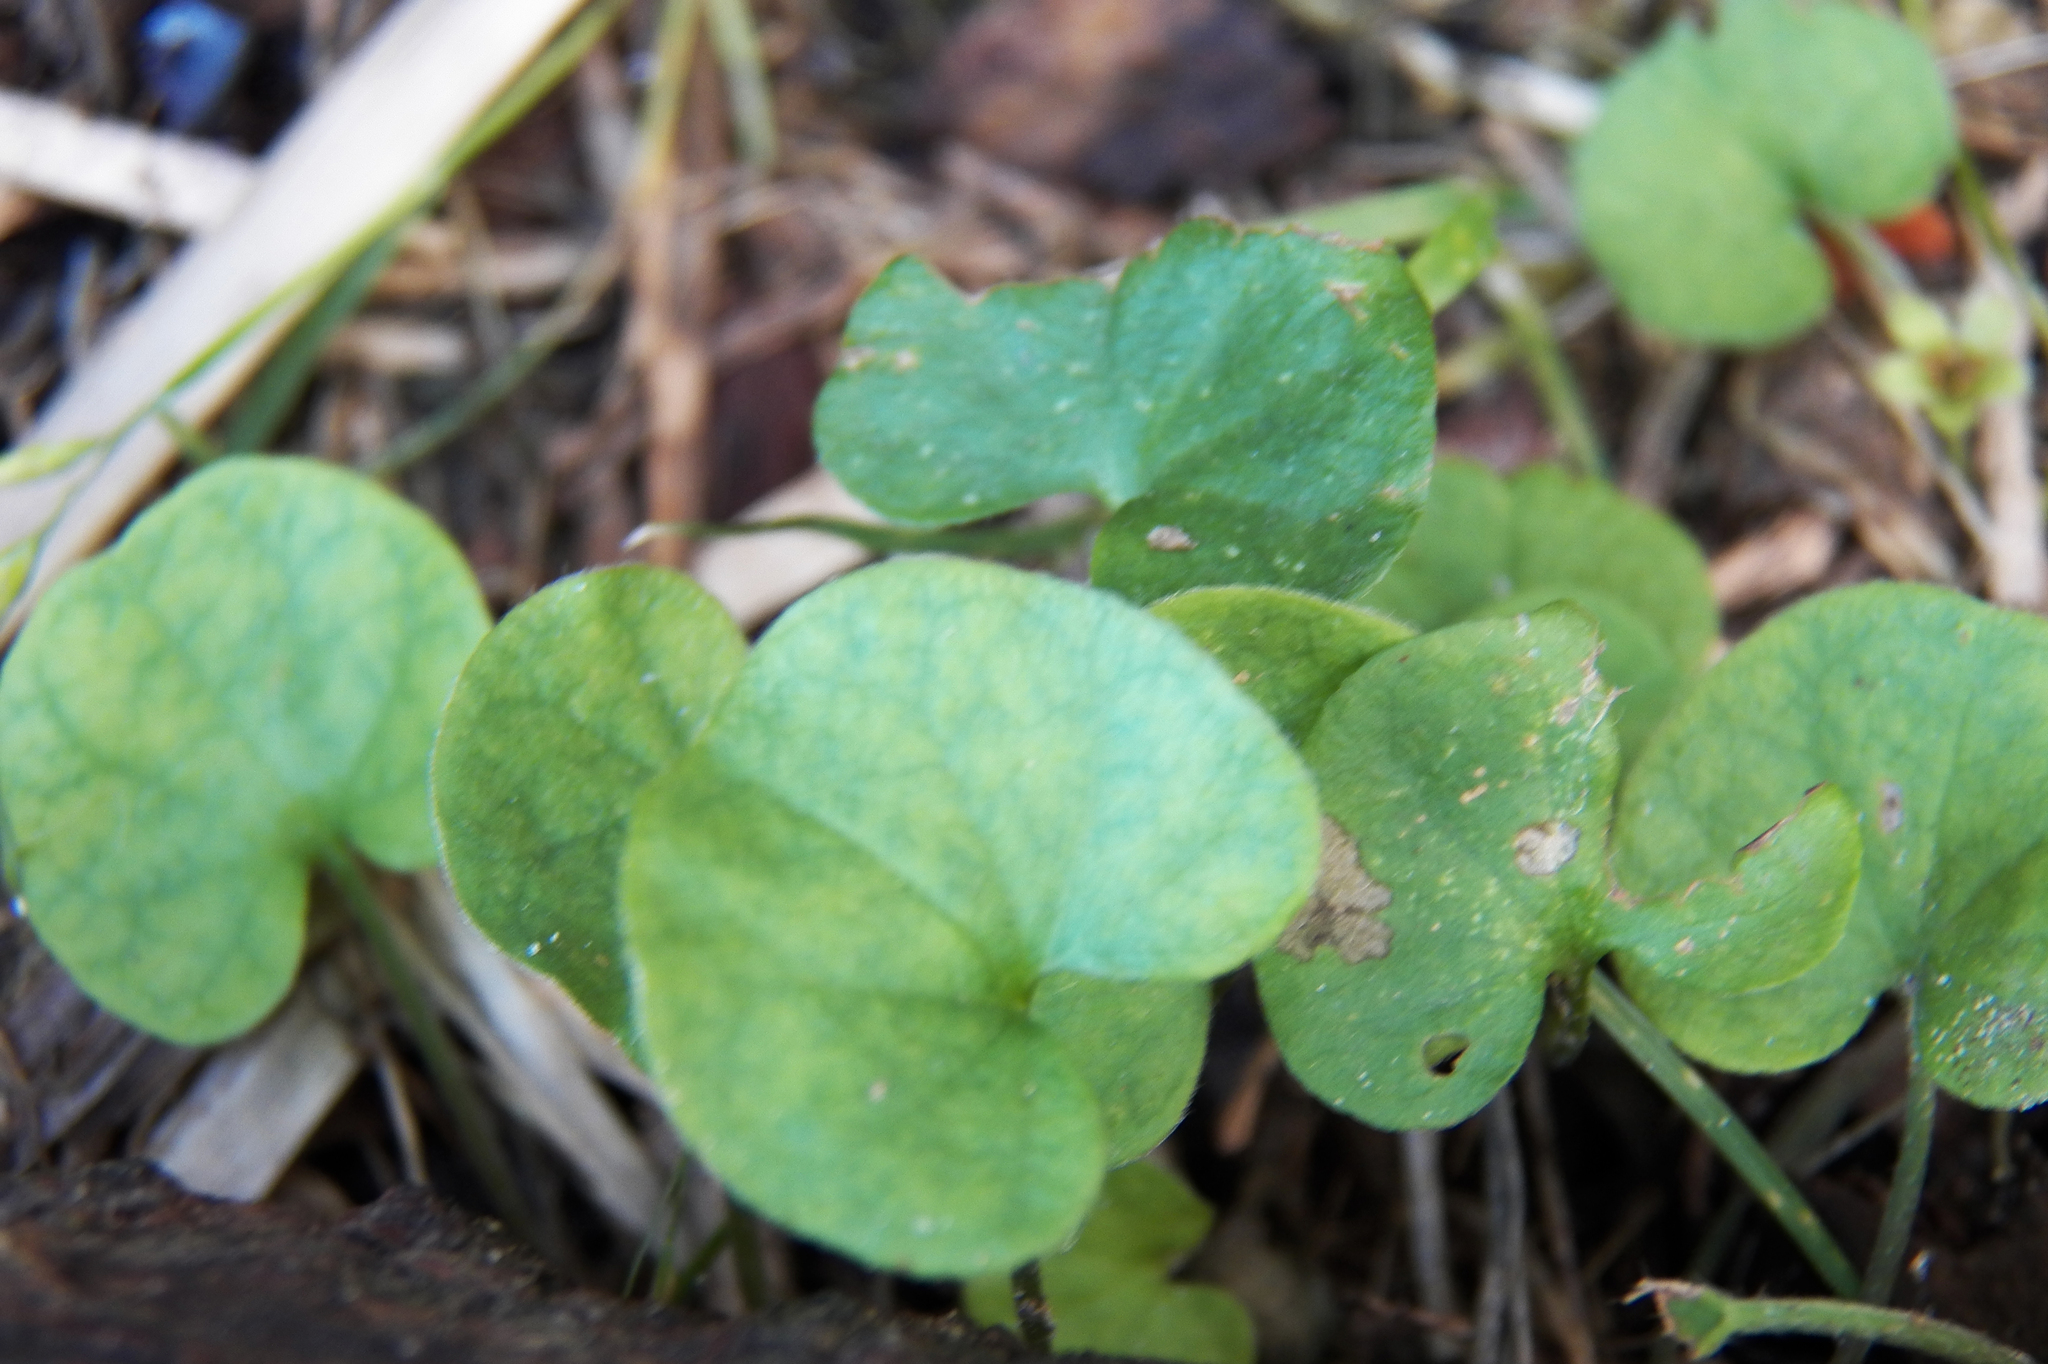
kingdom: Plantae
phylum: Tracheophyta
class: Magnoliopsida
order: Solanales
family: Convolvulaceae
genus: Dichondra
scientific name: Dichondra carolinensis
